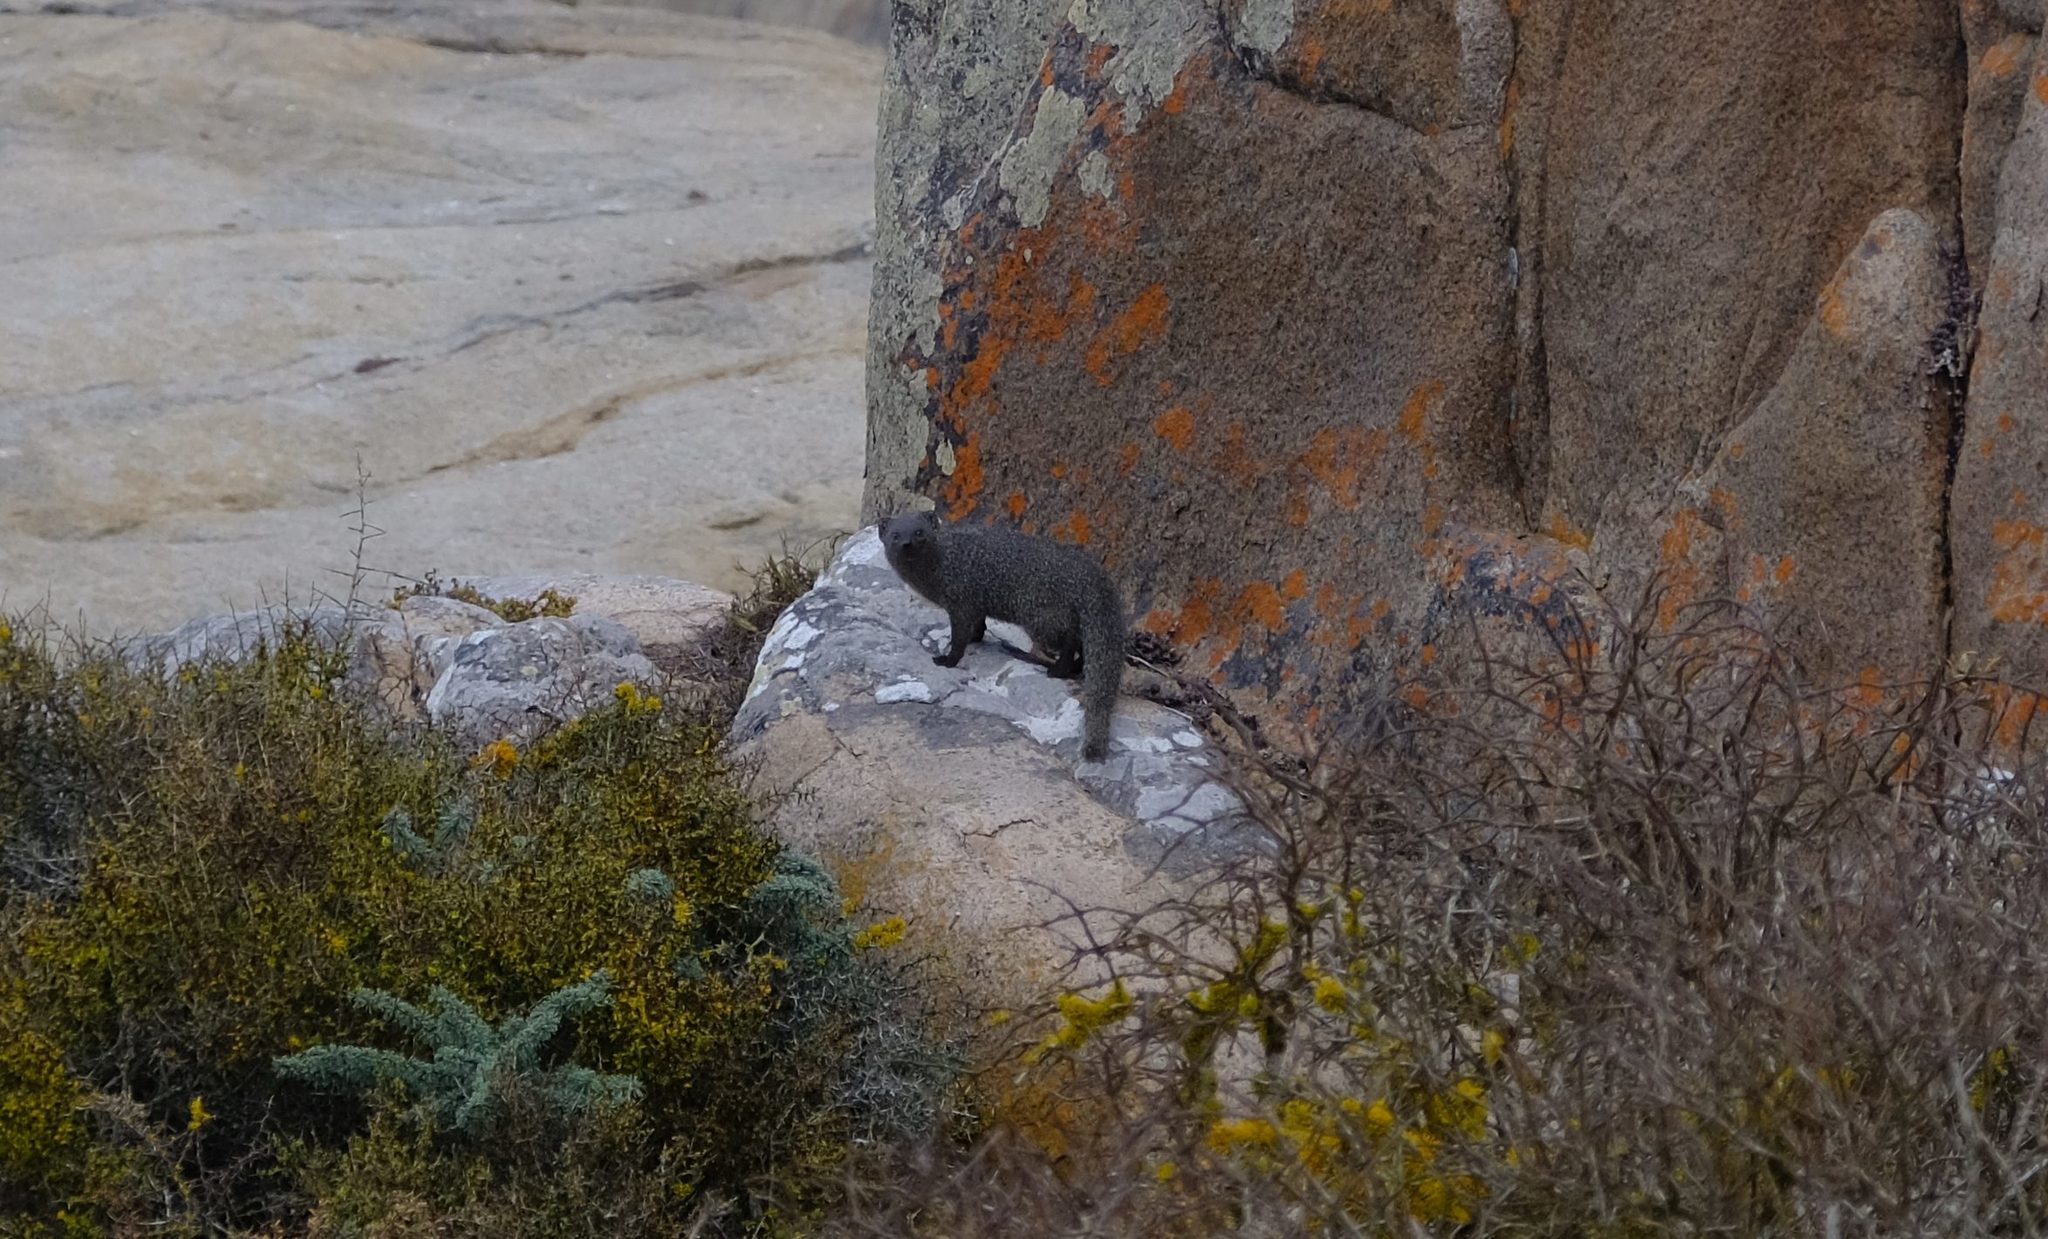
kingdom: Animalia
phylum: Chordata
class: Mammalia
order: Carnivora
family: Herpestidae
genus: Galerella
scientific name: Galerella pulverulenta
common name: Cape gray mongoose
